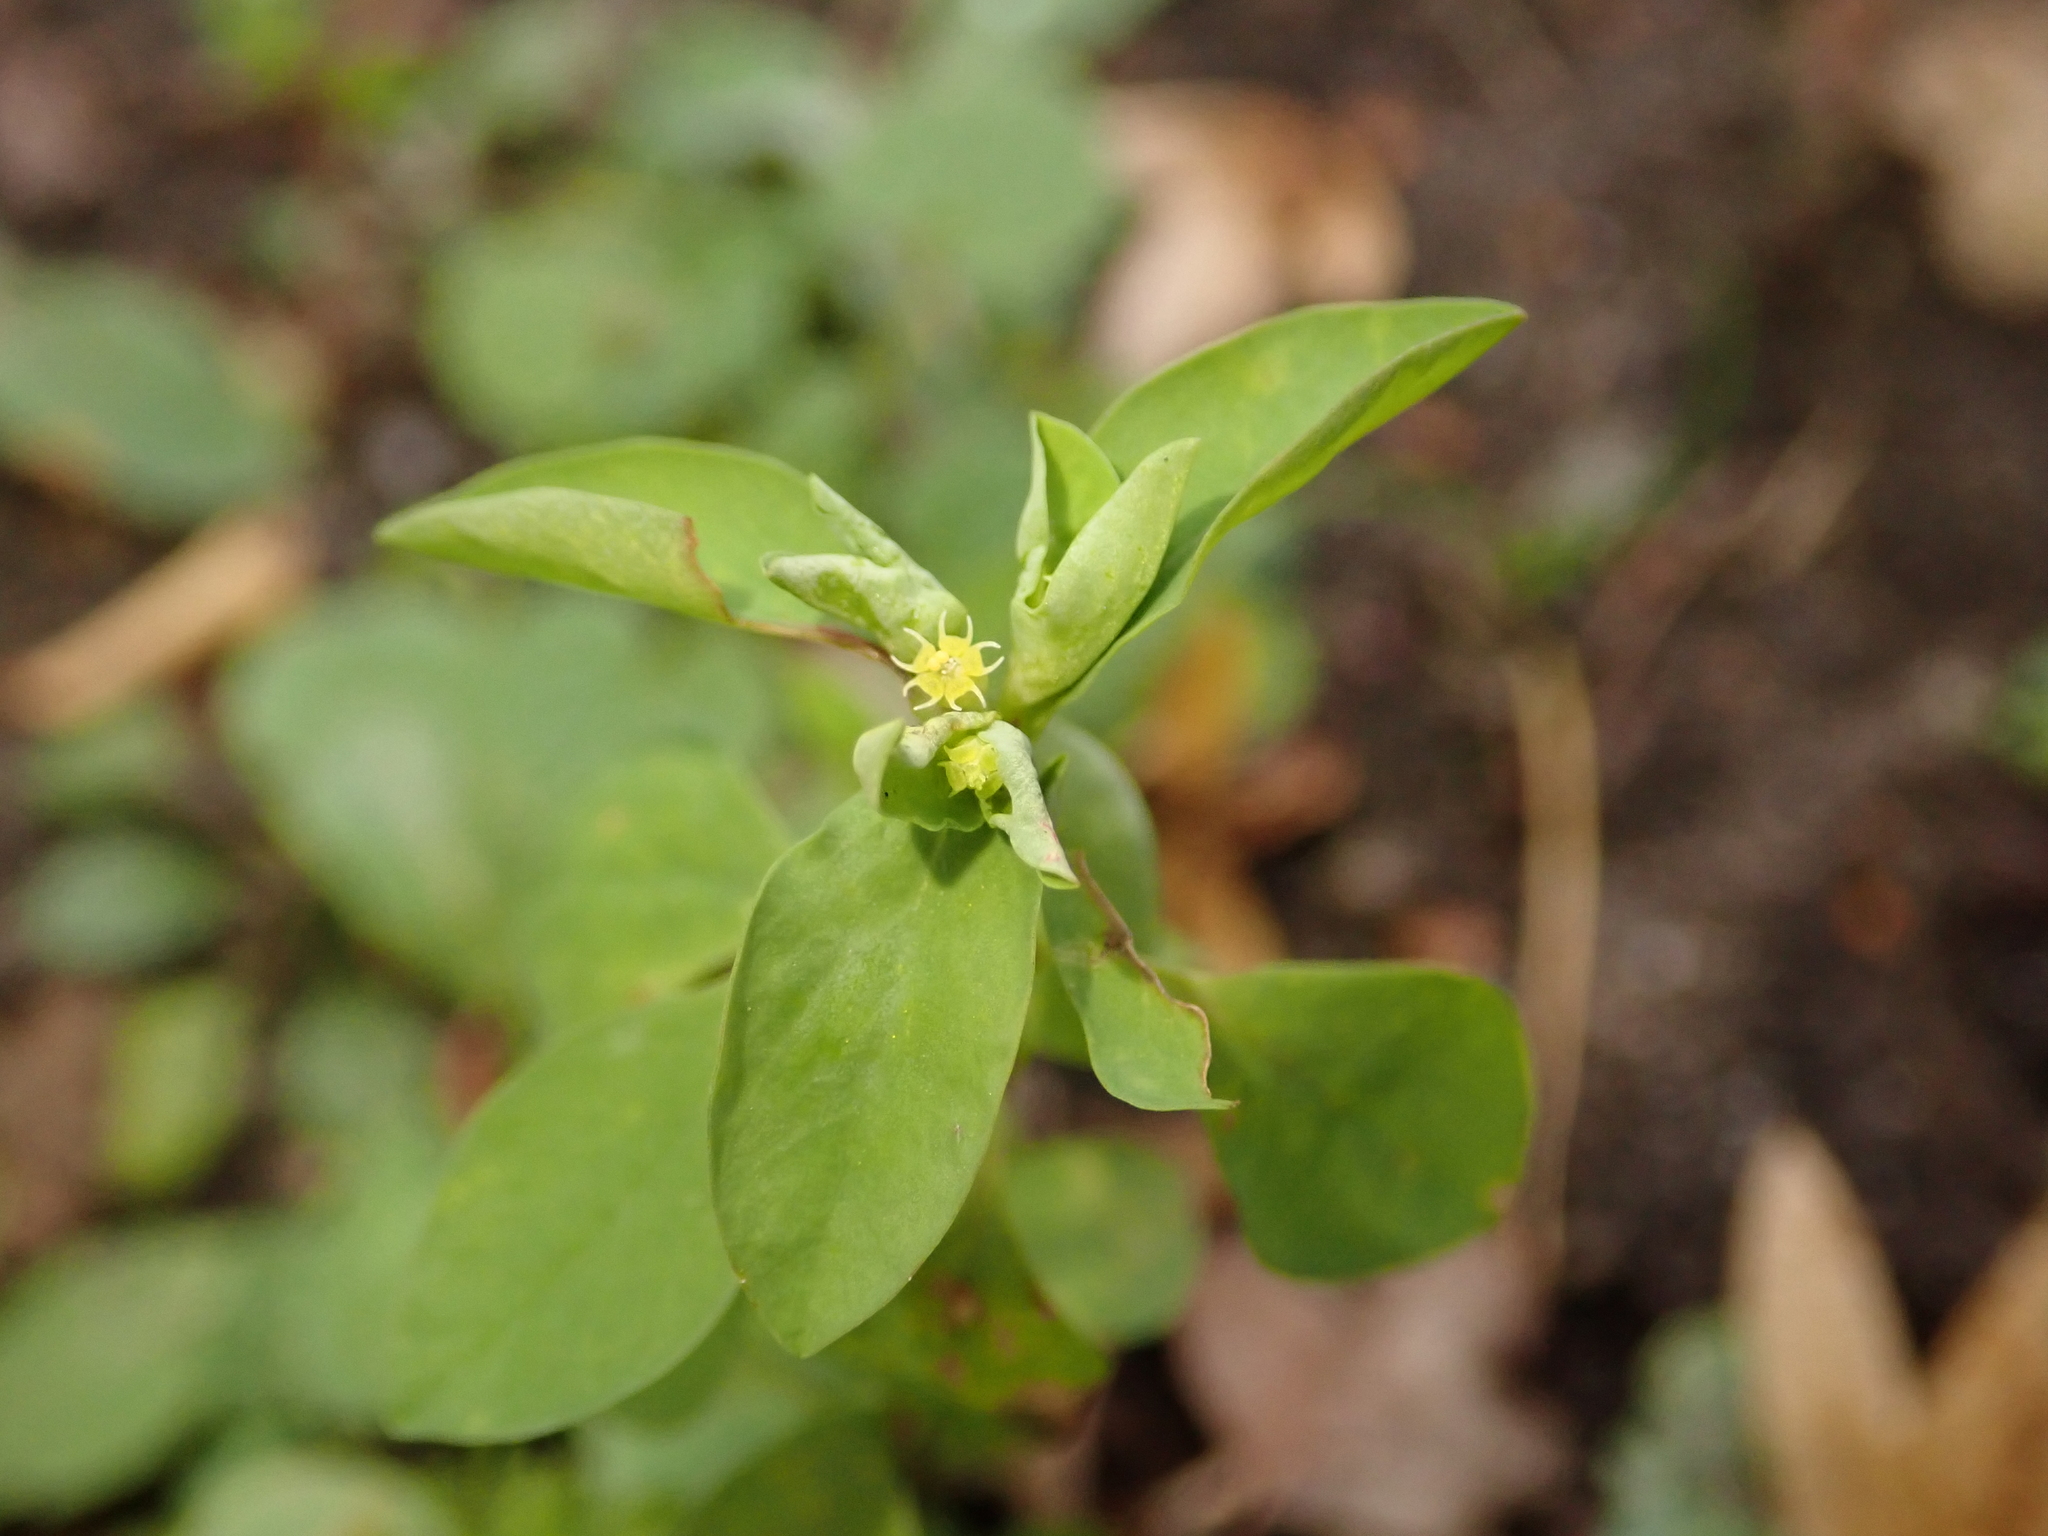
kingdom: Plantae
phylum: Tracheophyta
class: Magnoliopsida
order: Malpighiales
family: Euphorbiaceae
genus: Euphorbia
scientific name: Euphorbia peplus
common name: Petty spurge
